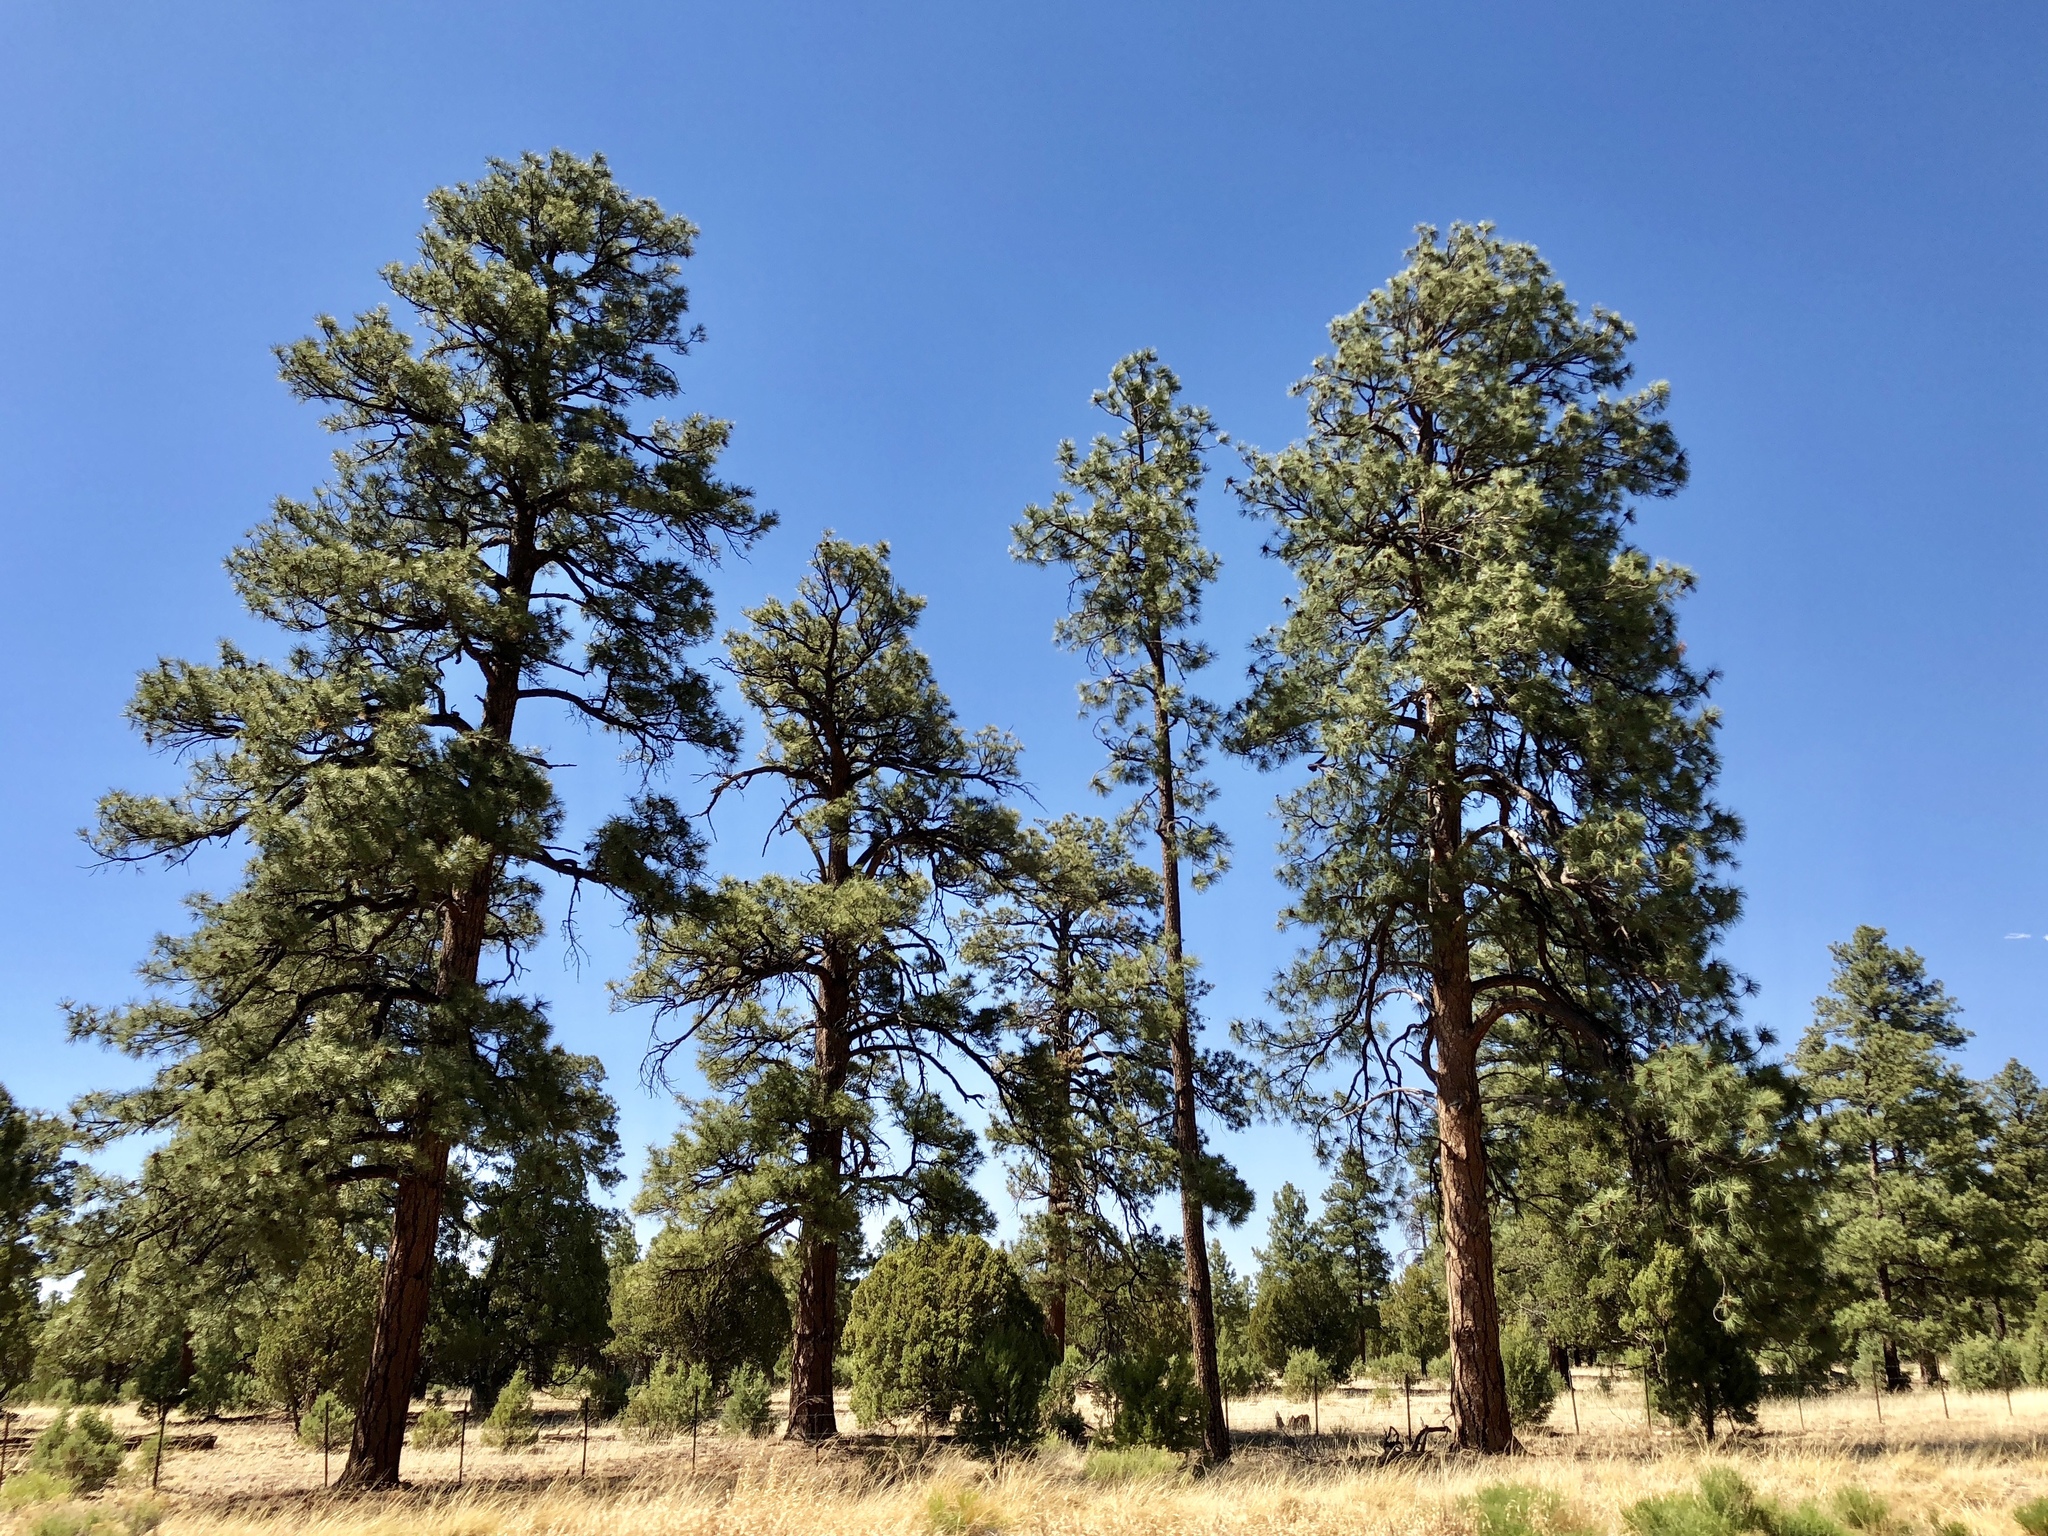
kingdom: Plantae
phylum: Tracheophyta
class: Pinopsida
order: Pinales
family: Pinaceae
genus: Pinus
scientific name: Pinus ponderosa
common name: Western yellow-pine
